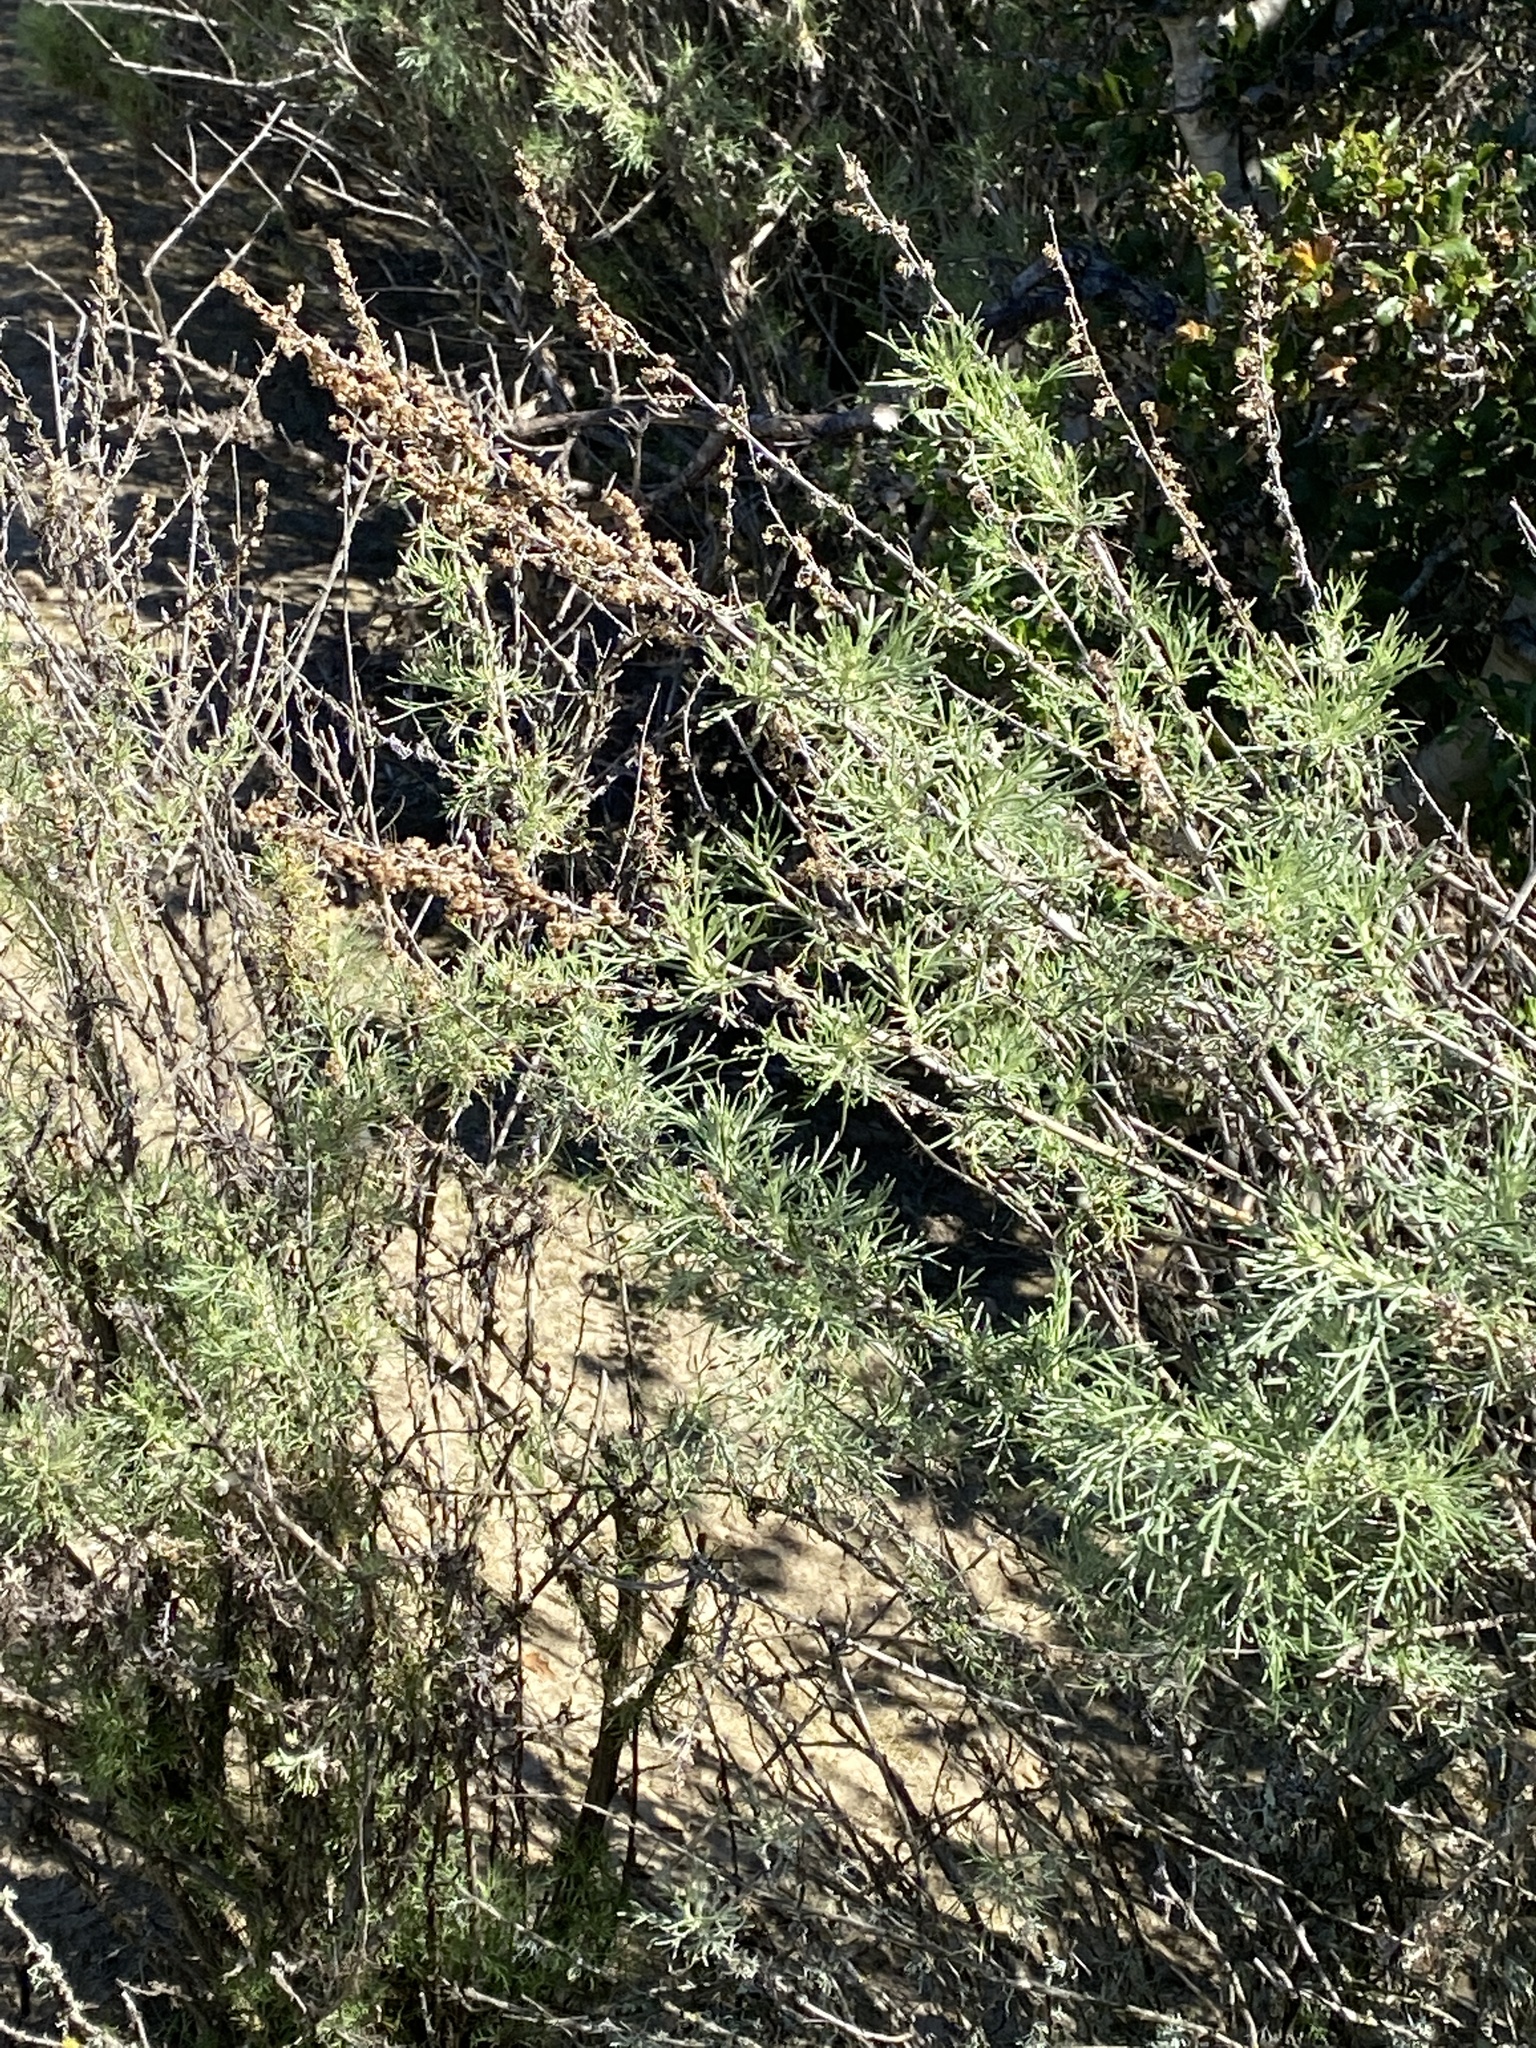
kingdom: Plantae
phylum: Tracheophyta
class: Magnoliopsida
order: Asterales
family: Asteraceae
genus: Artemisia
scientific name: Artemisia californica
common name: California sagebrush
